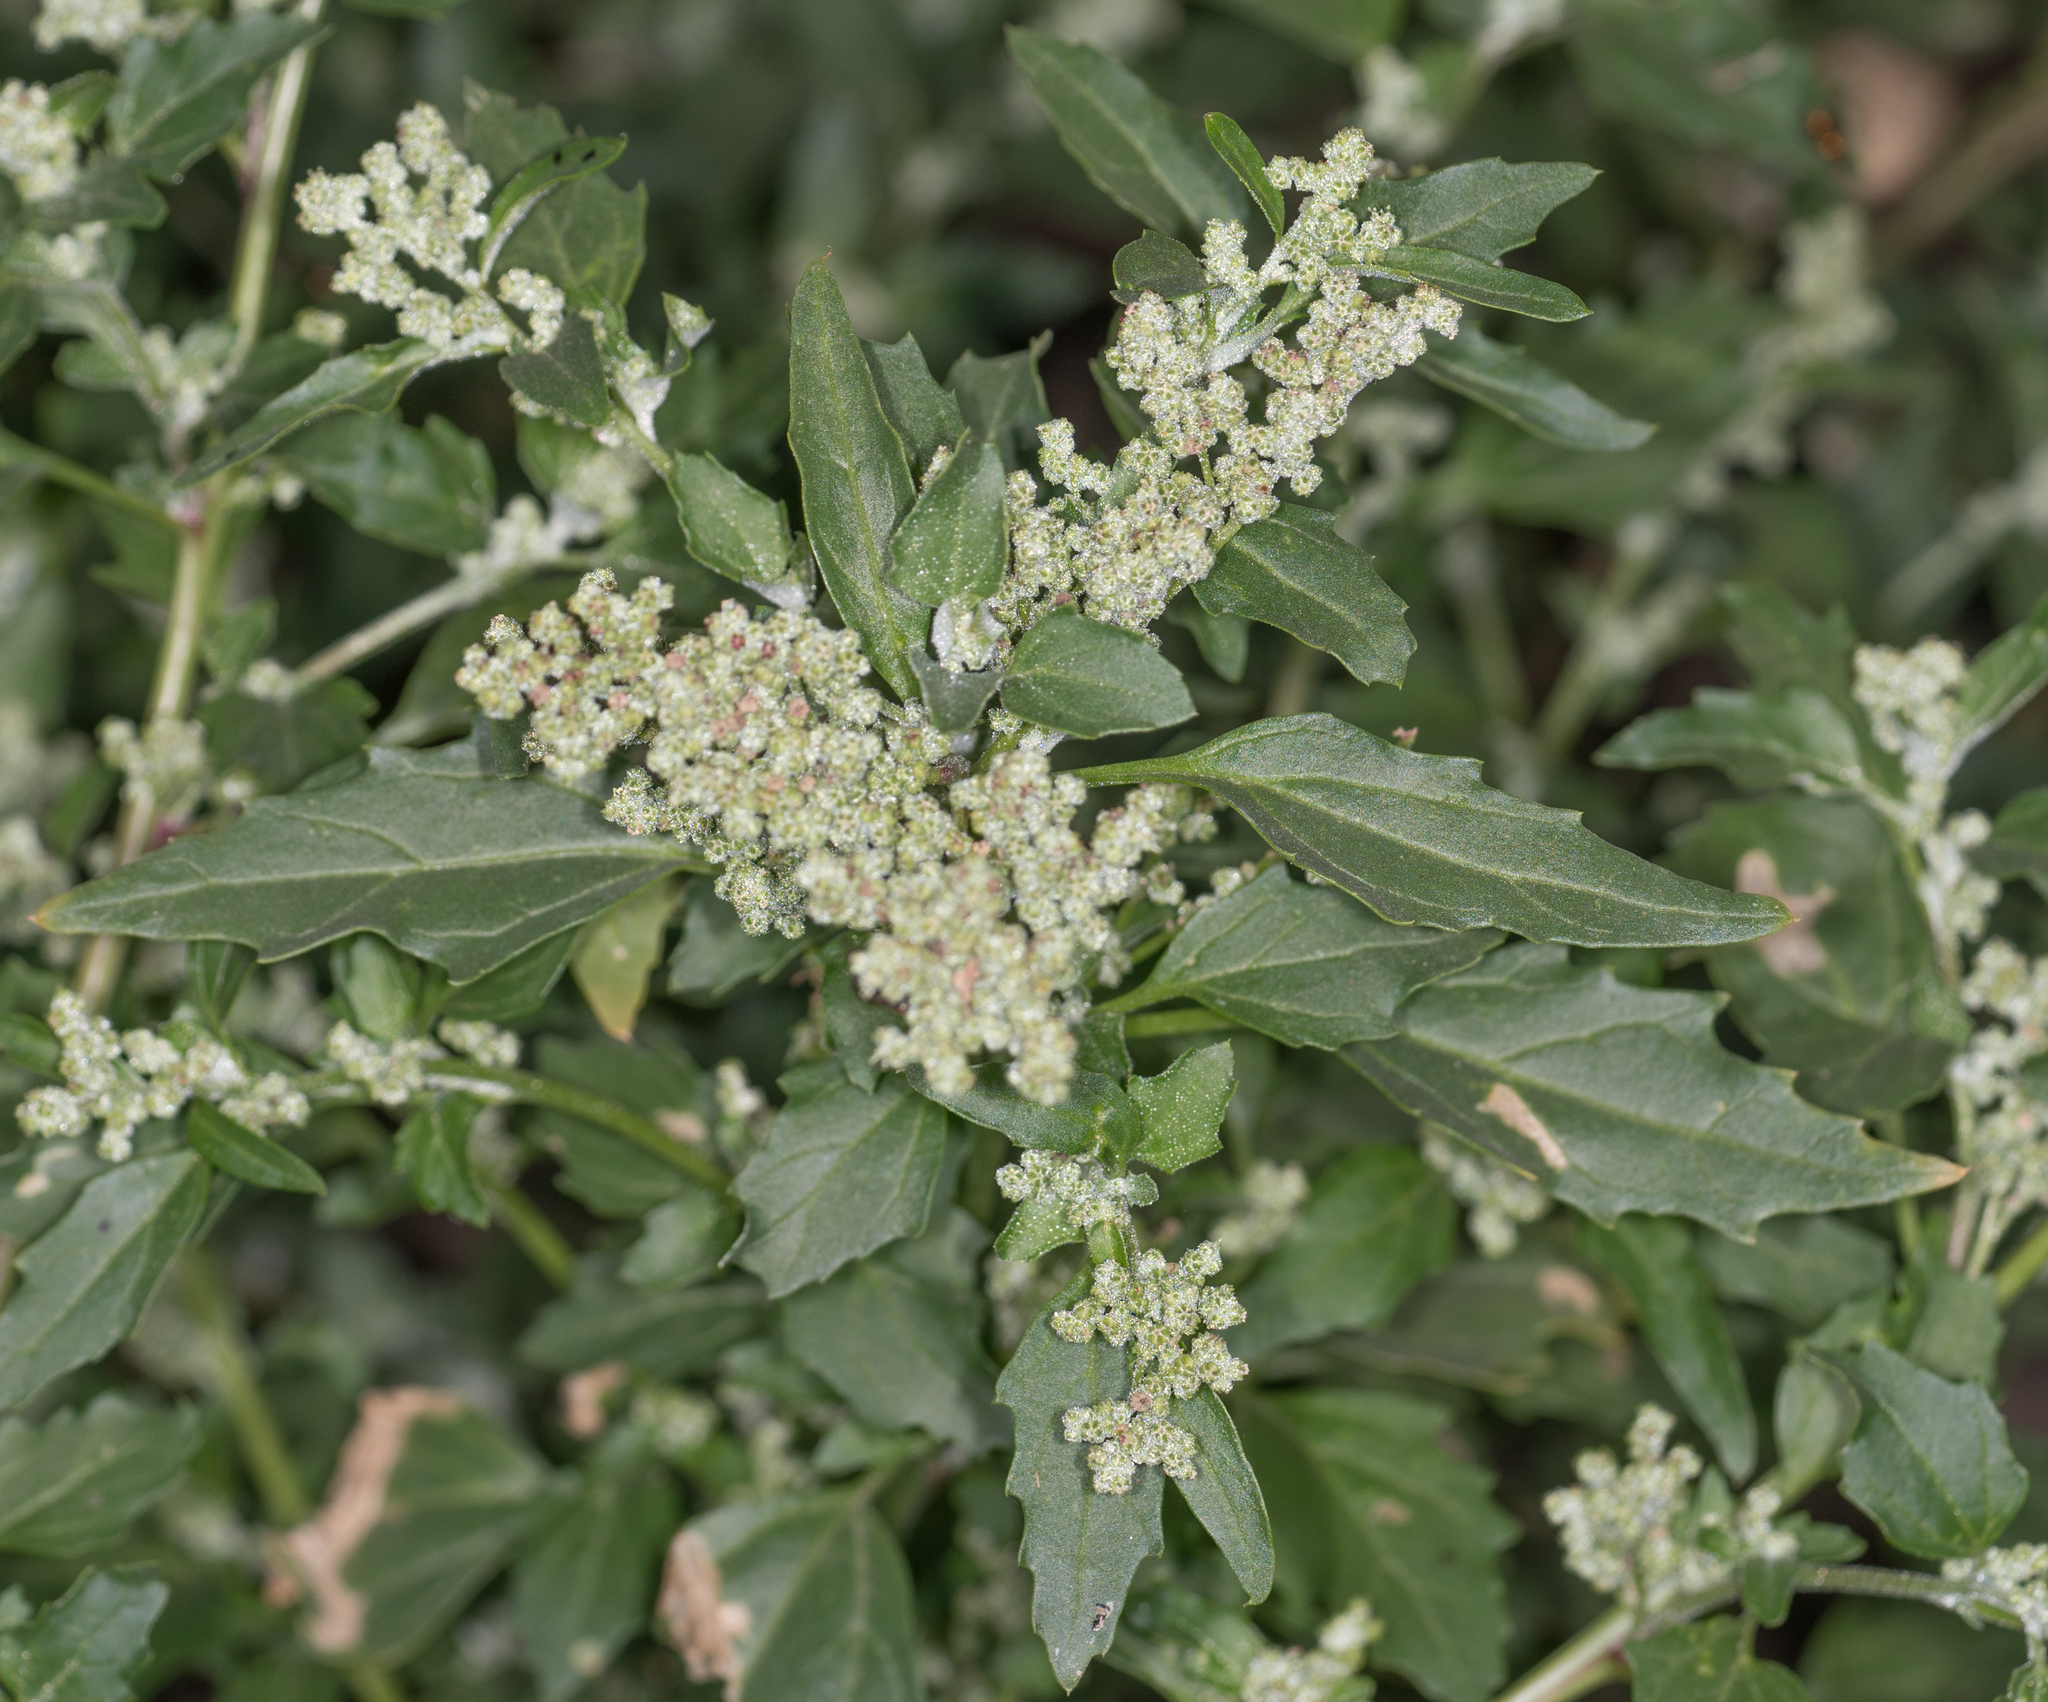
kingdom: Plantae
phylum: Tracheophyta
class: Magnoliopsida
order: Caryophyllales
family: Amaranthaceae
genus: Chenopodiastrum
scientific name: Chenopodiastrum murale
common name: Sowbane
